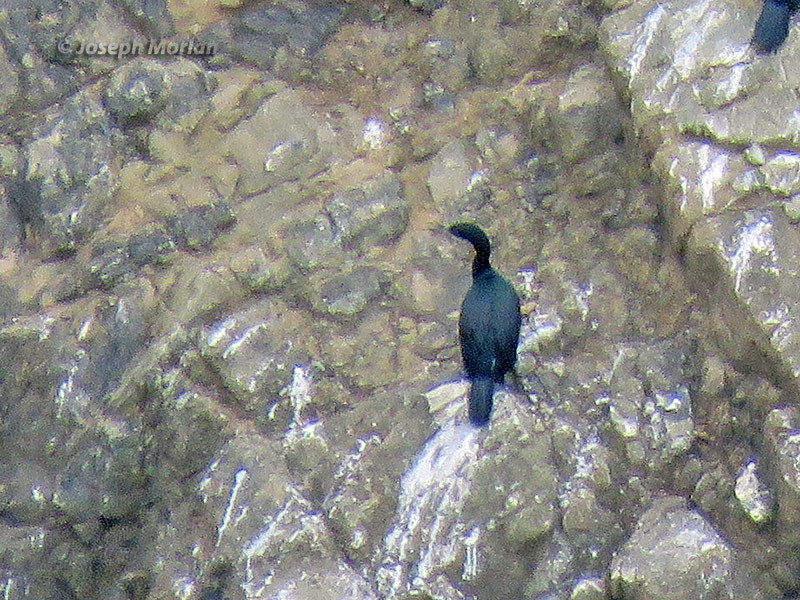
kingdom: Animalia
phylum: Chordata
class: Aves
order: Suliformes
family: Phalacrocoracidae
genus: Phalacrocorax
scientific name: Phalacrocorax pelagicus
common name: Pelagic cormorant
